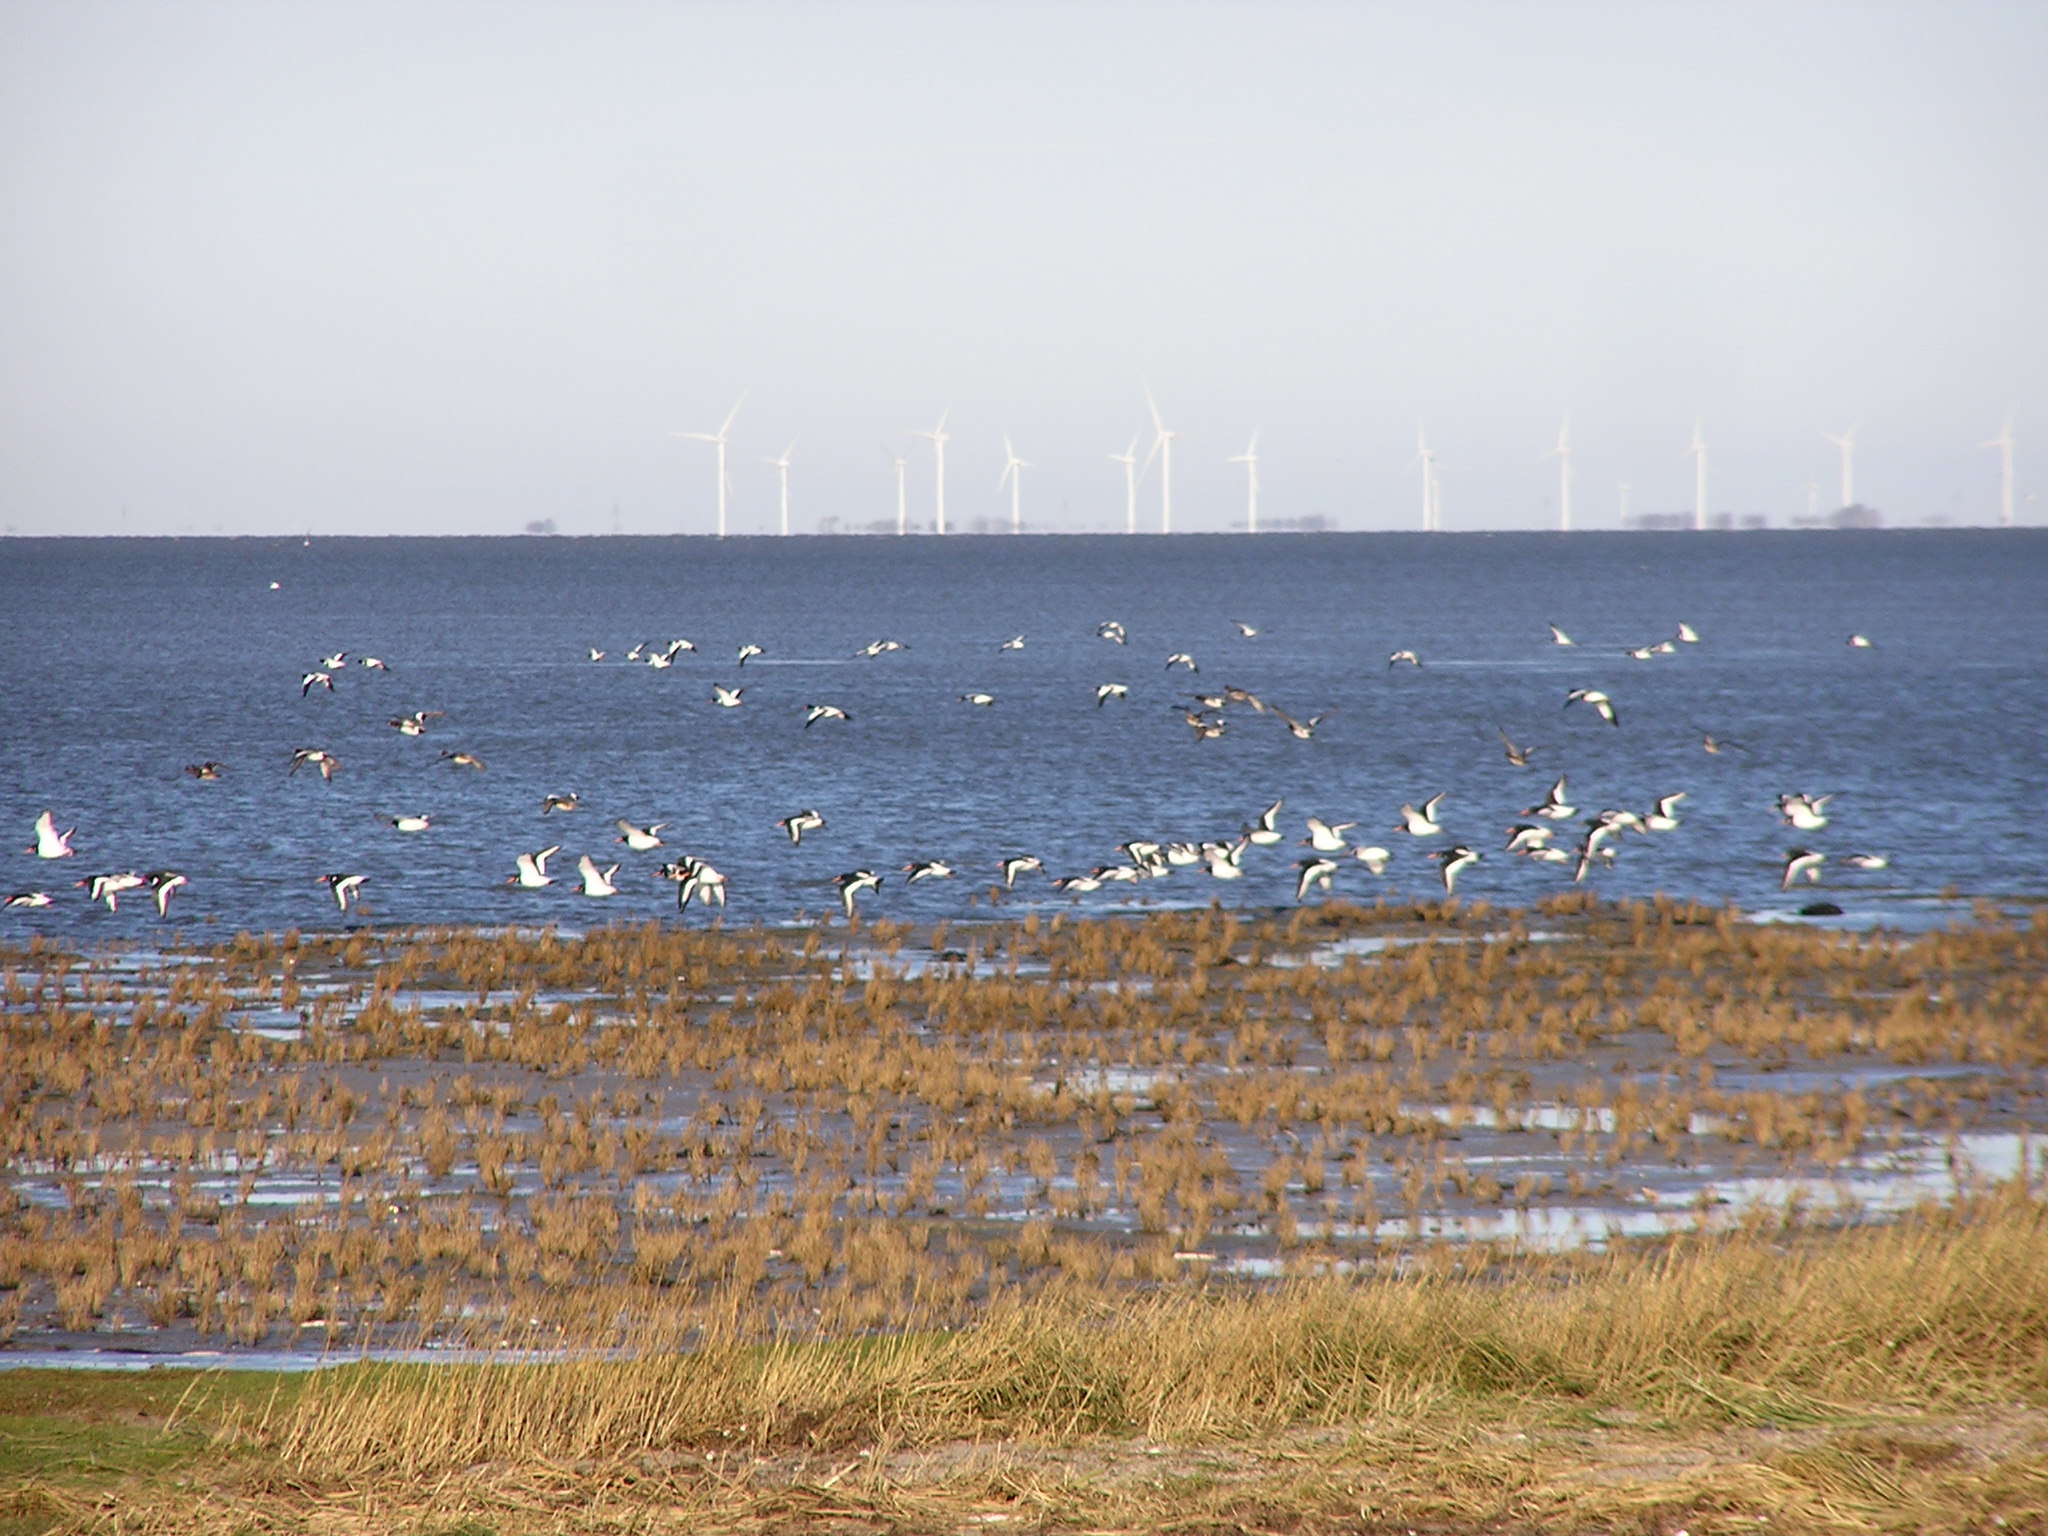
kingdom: Animalia
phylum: Chordata
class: Aves
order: Charadriiformes
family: Haematopodidae
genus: Haematopus
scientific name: Haematopus ostralegus
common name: Eurasian oystercatcher
